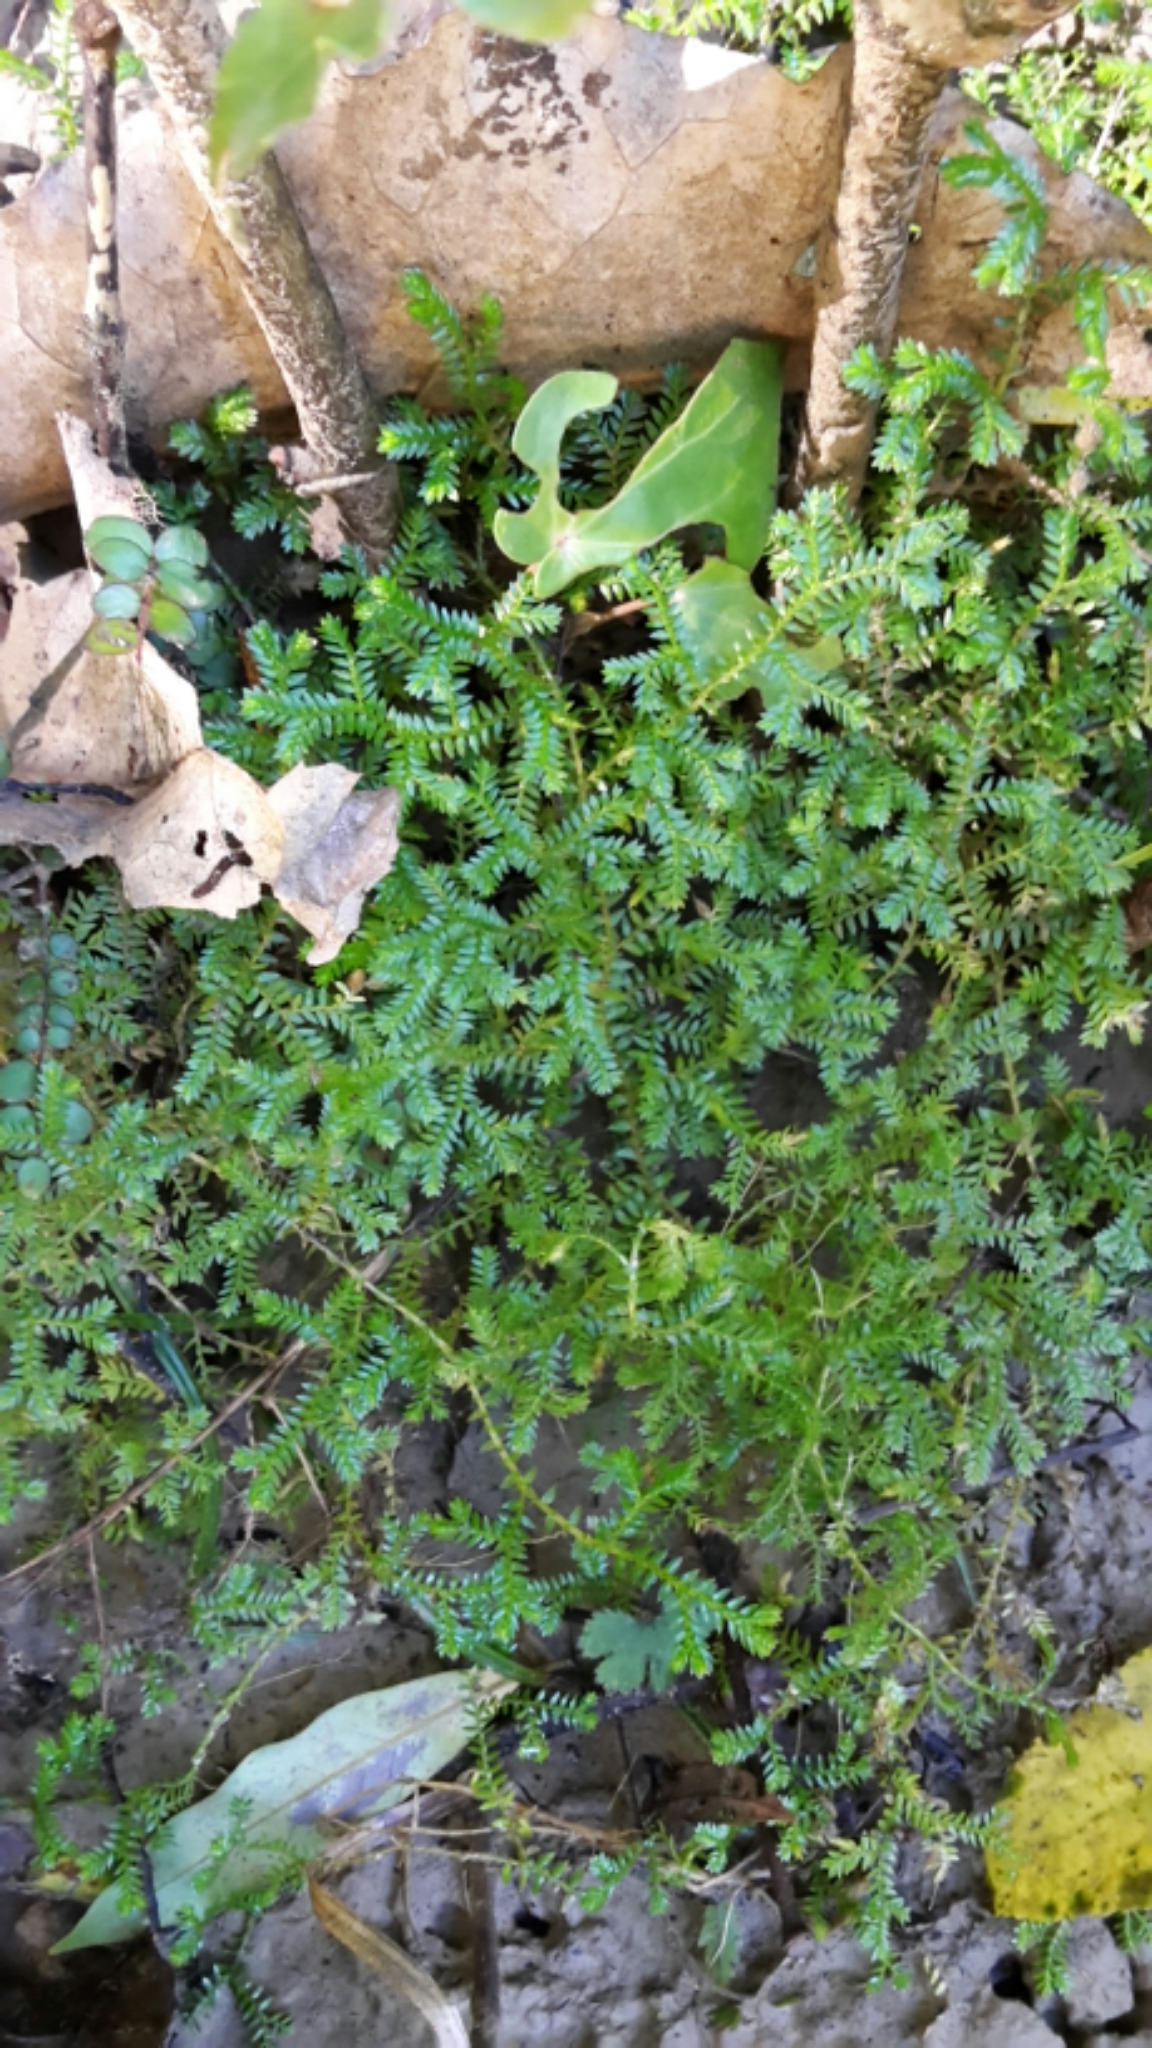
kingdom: Plantae
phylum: Tracheophyta
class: Lycopodiopsida
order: Selaginellales
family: Selaginellaceae
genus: Selaginella
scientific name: Selaginella kraussiana
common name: Krauss' spikemoss
